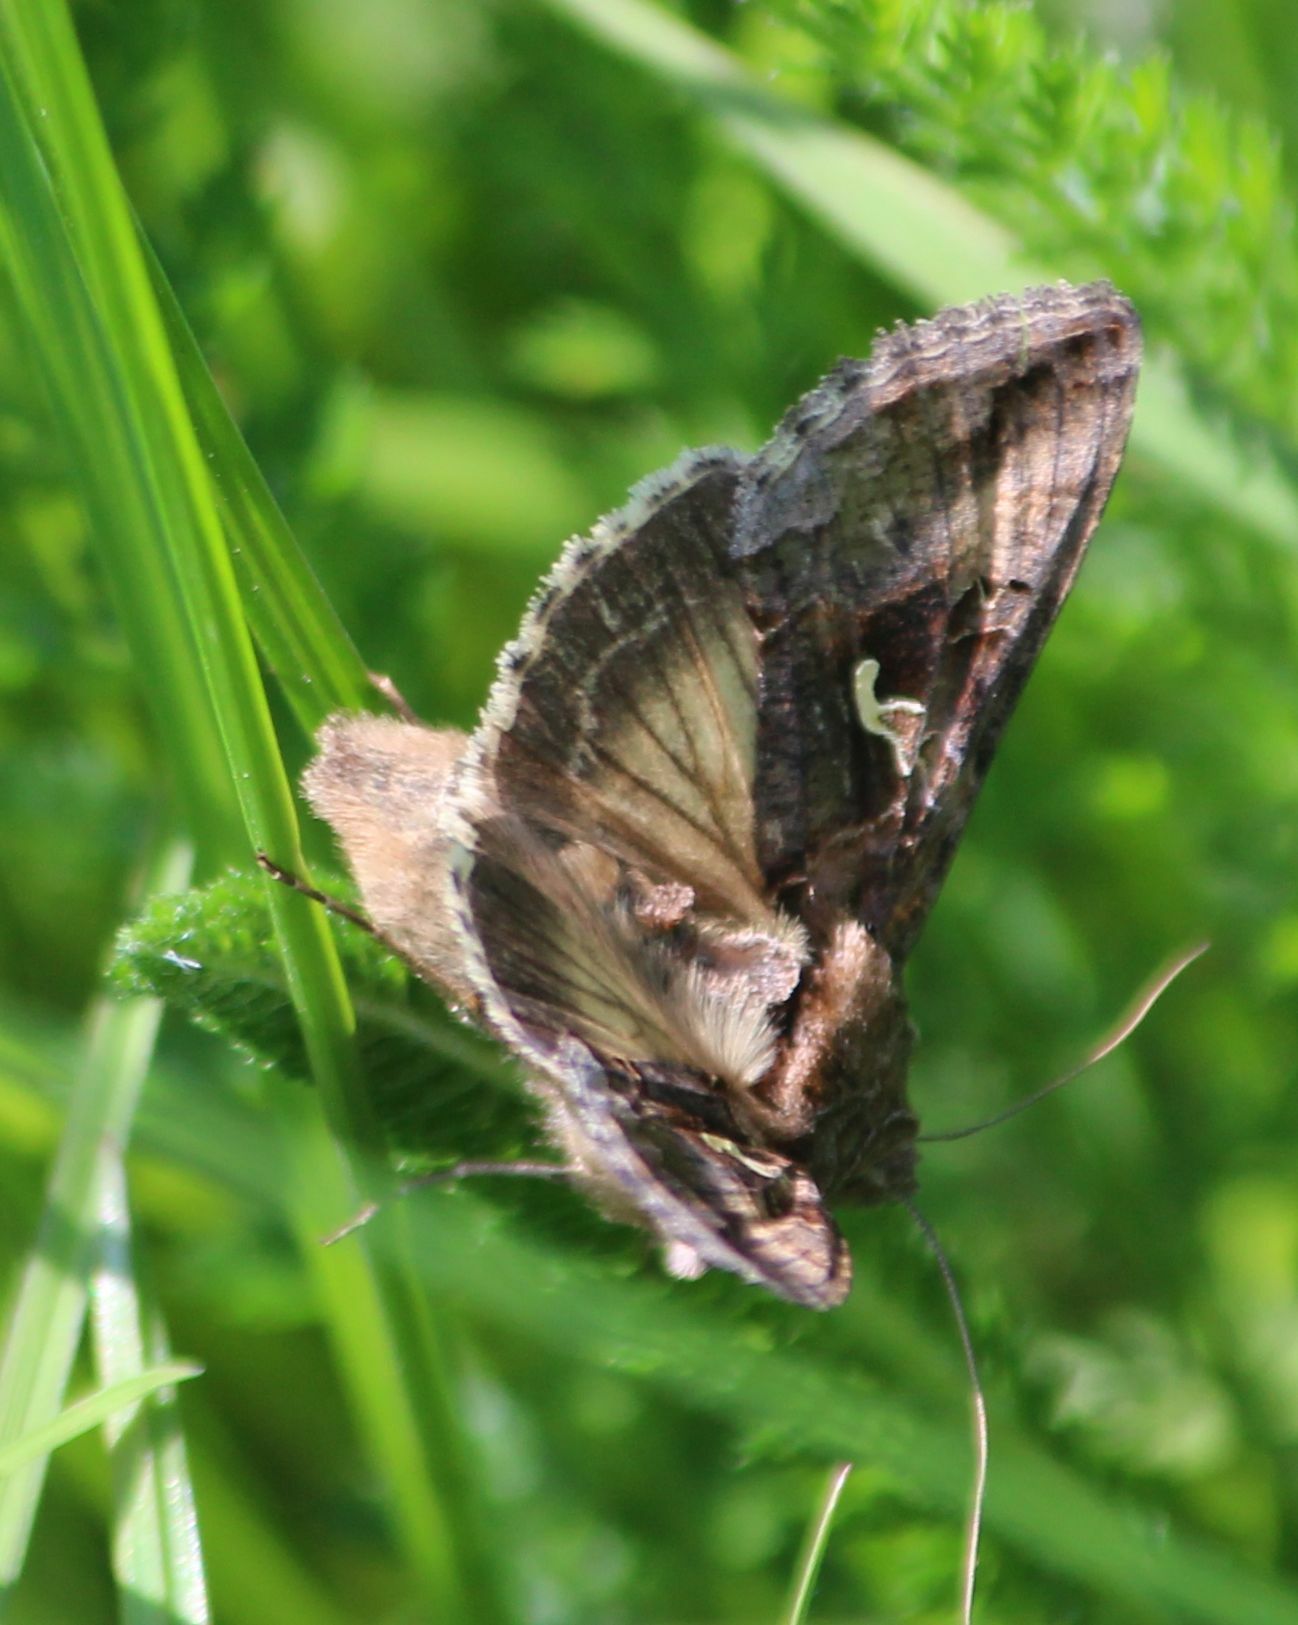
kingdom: Animalia
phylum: Arthropoda
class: Insecta
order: Lepidoptera
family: Noctuidae
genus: Autographa
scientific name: Autographa gamma
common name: Silver y
